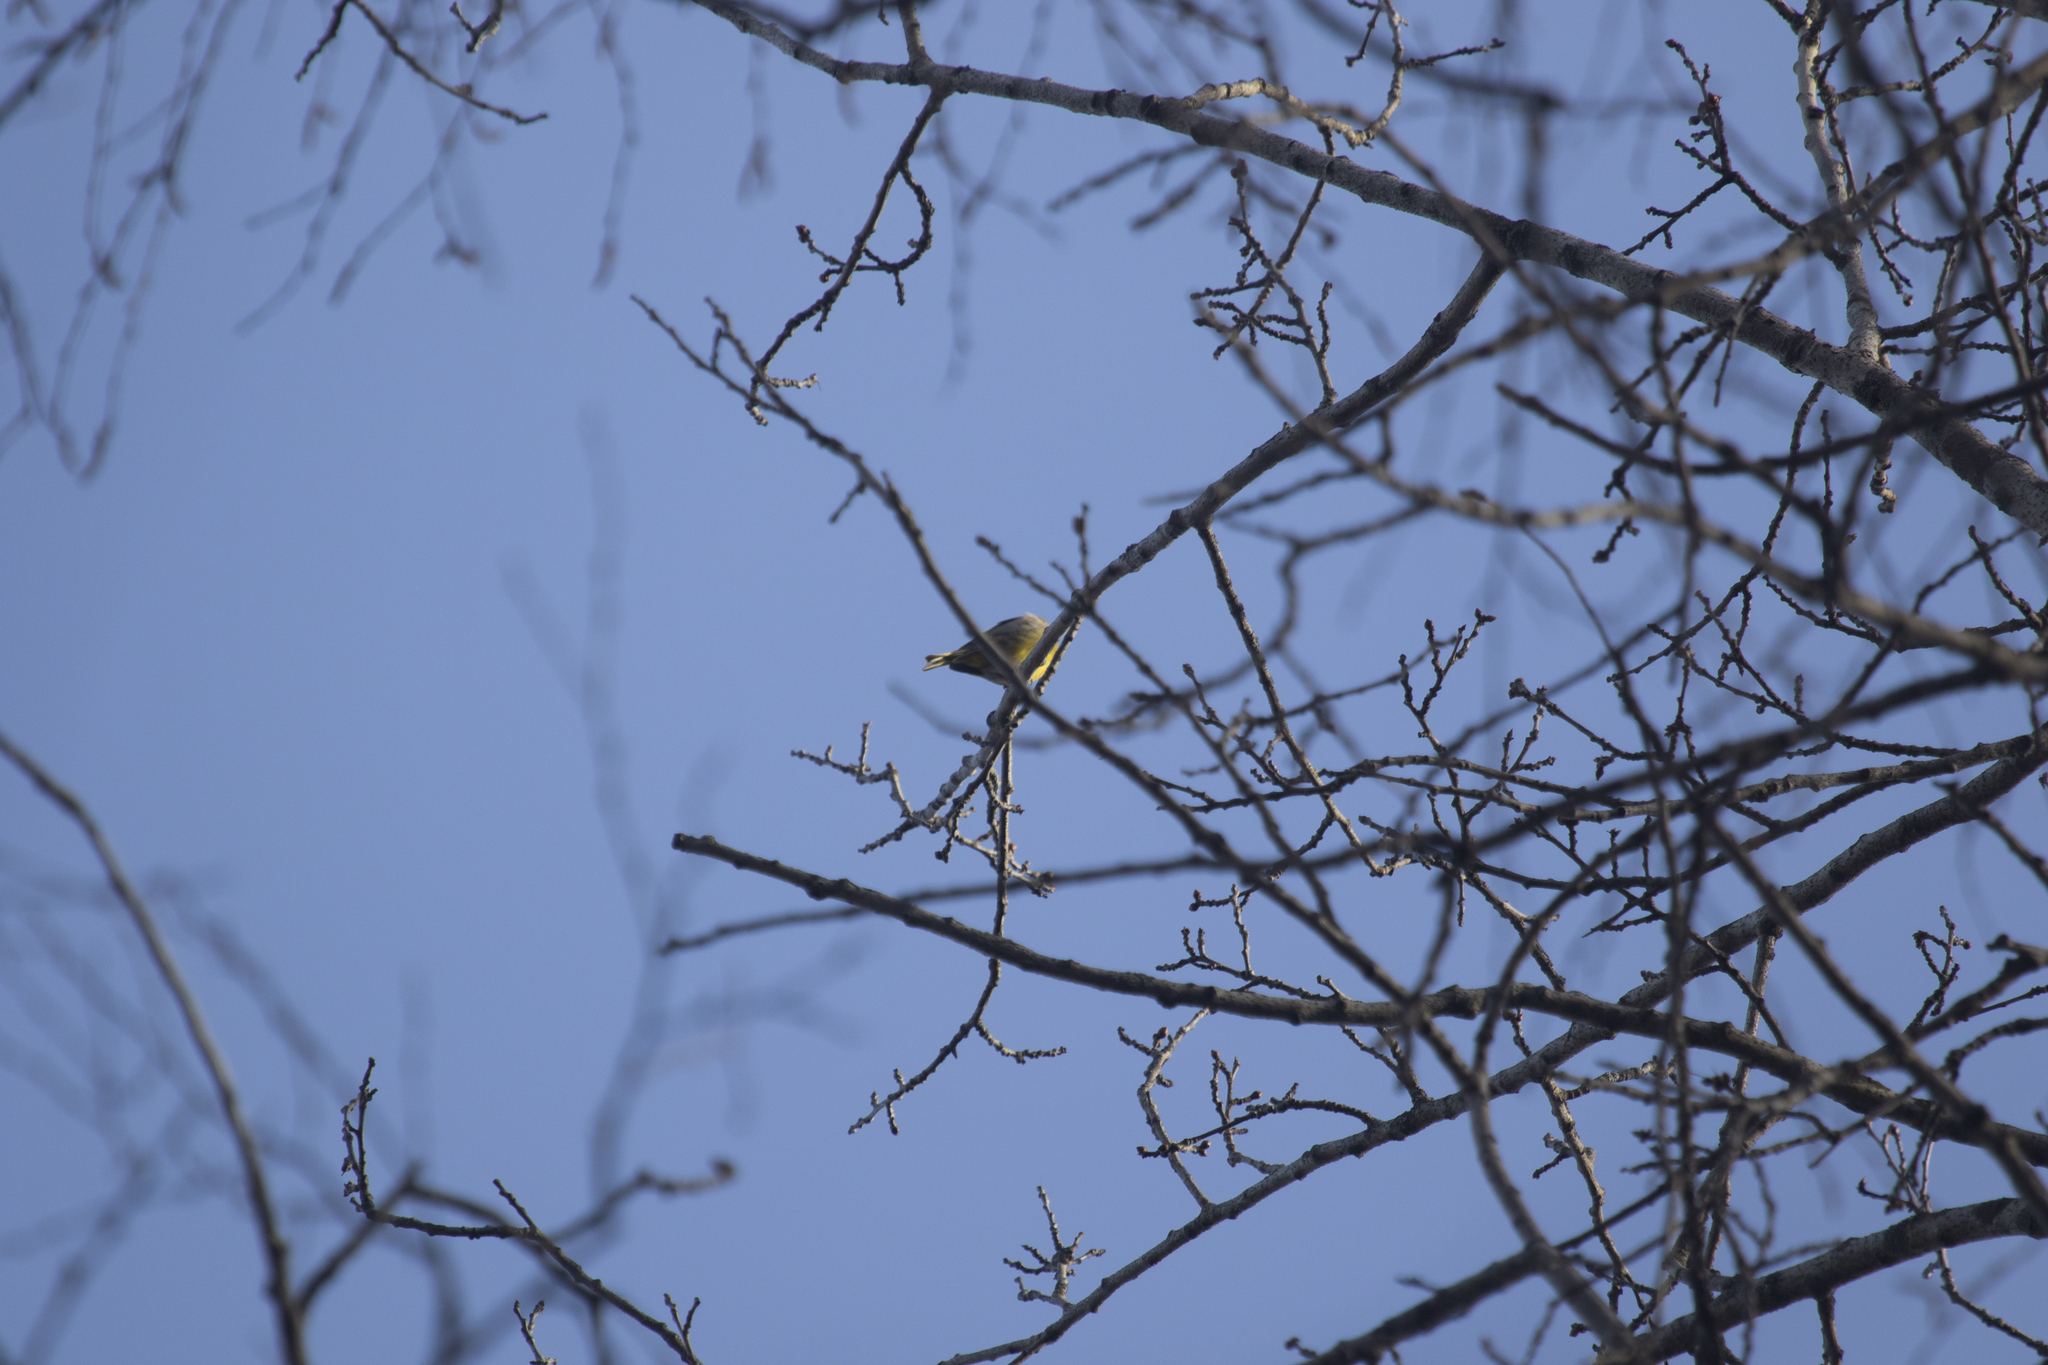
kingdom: Plantae
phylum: Tracheophyta
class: Liliopsida
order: Poales
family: Poaceae
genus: Chloris
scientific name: Chloris chloris
